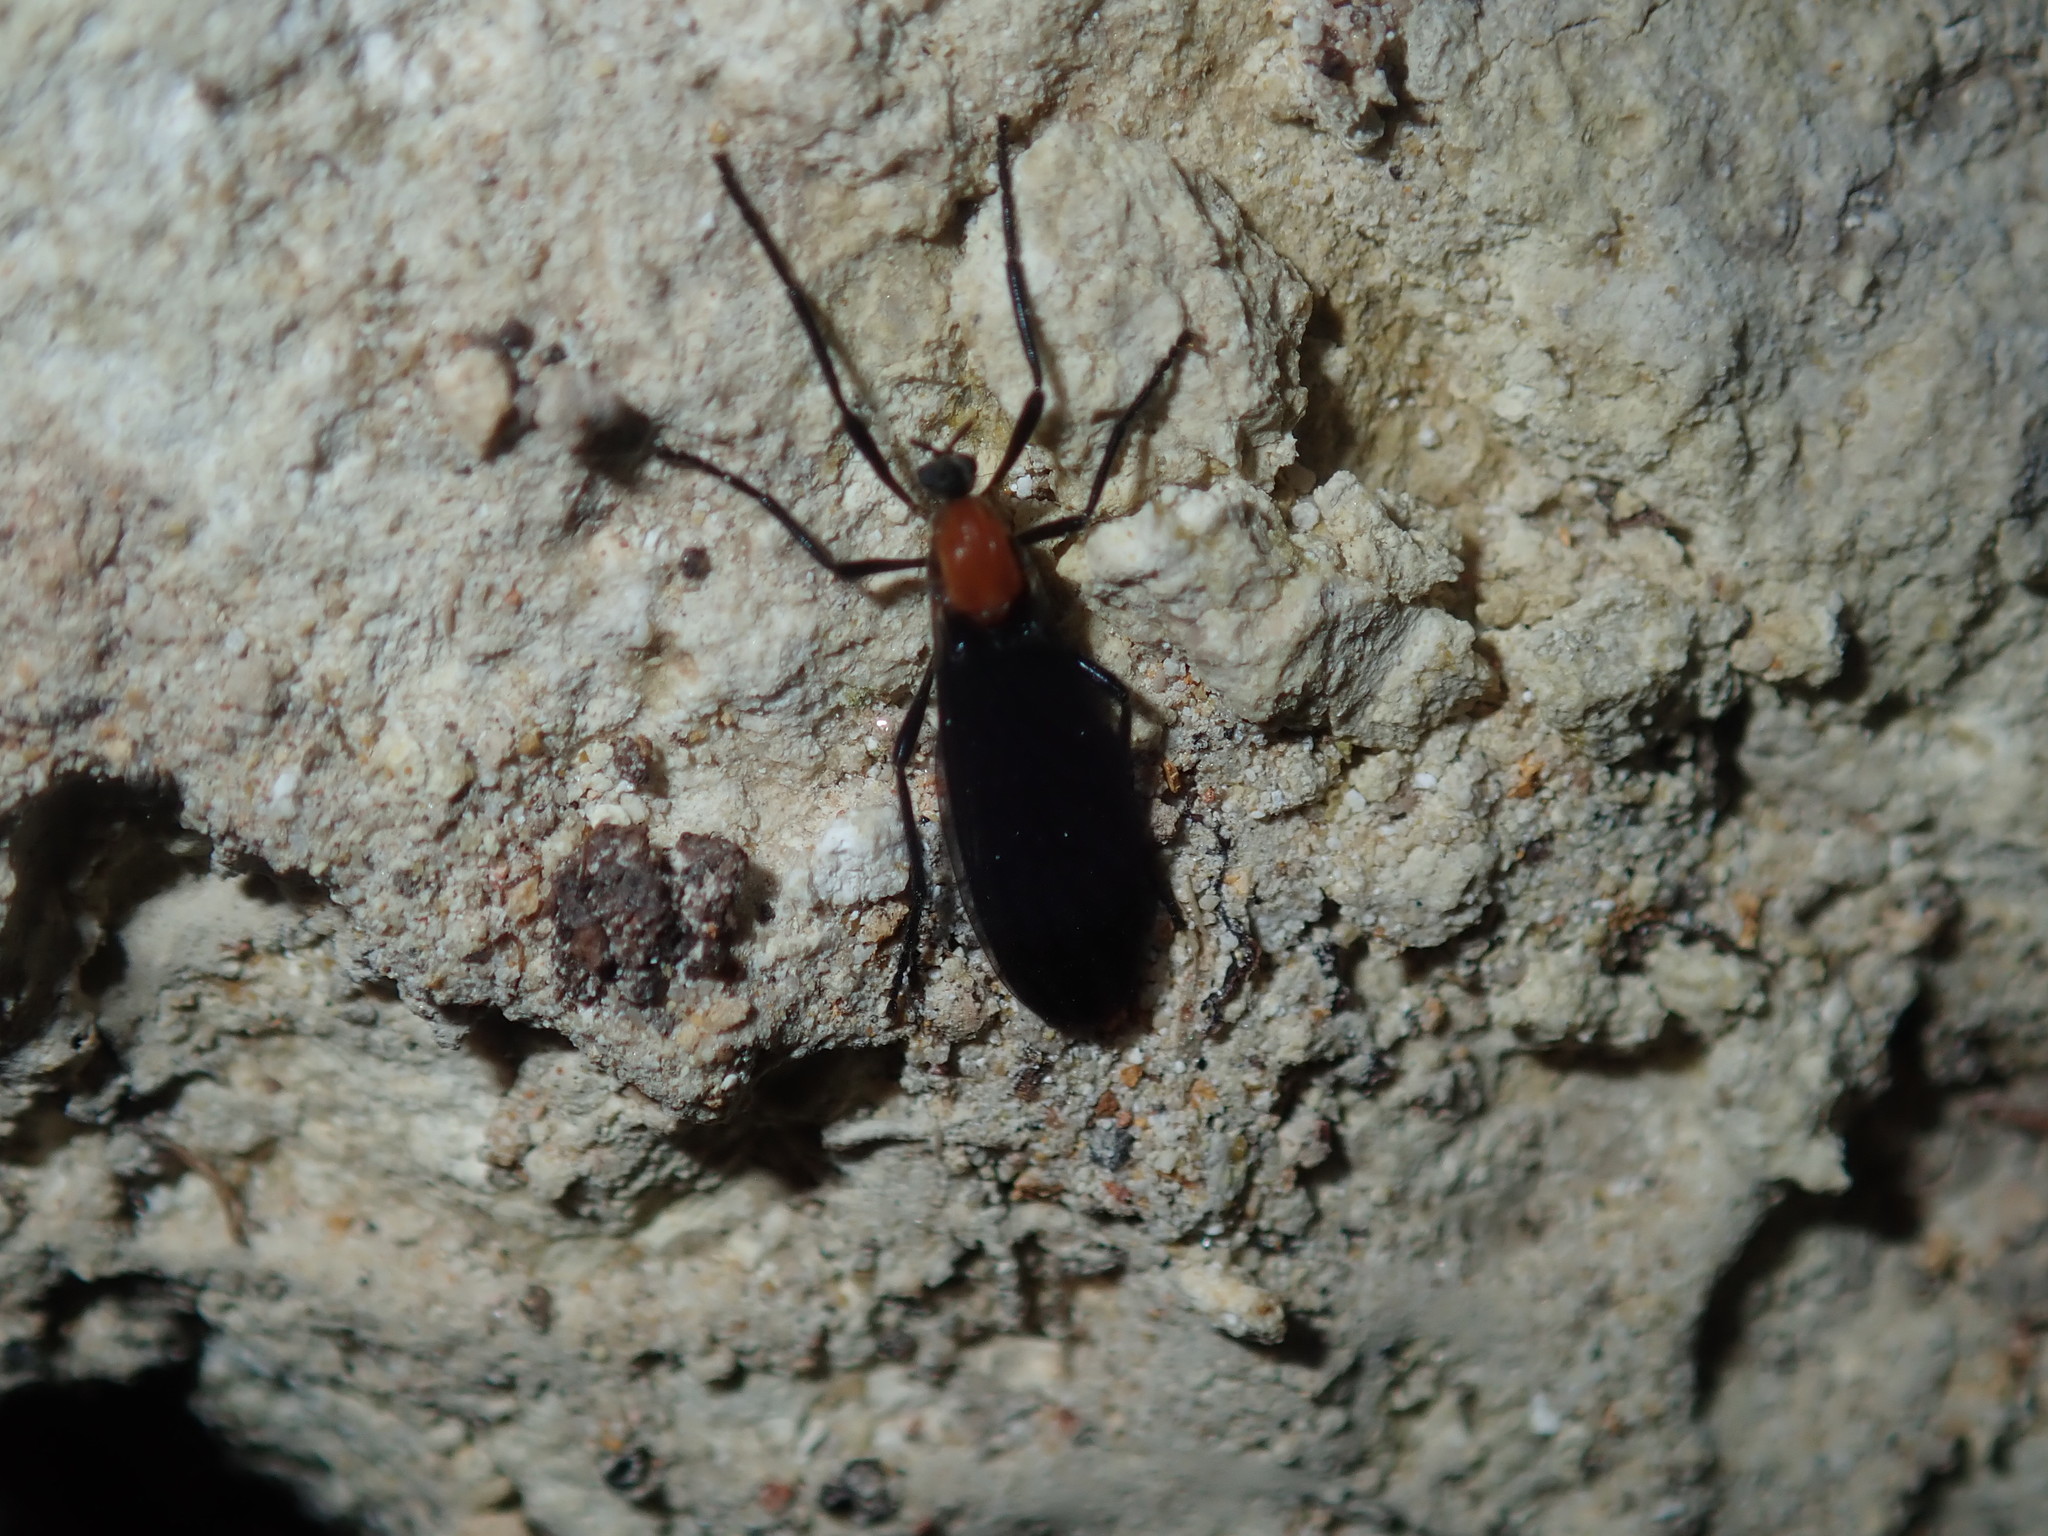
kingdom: Animalia
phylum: Arthropoda
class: Insecta
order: Diptera
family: Bibionidae
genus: Plecia
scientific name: Plecia dimidiata
